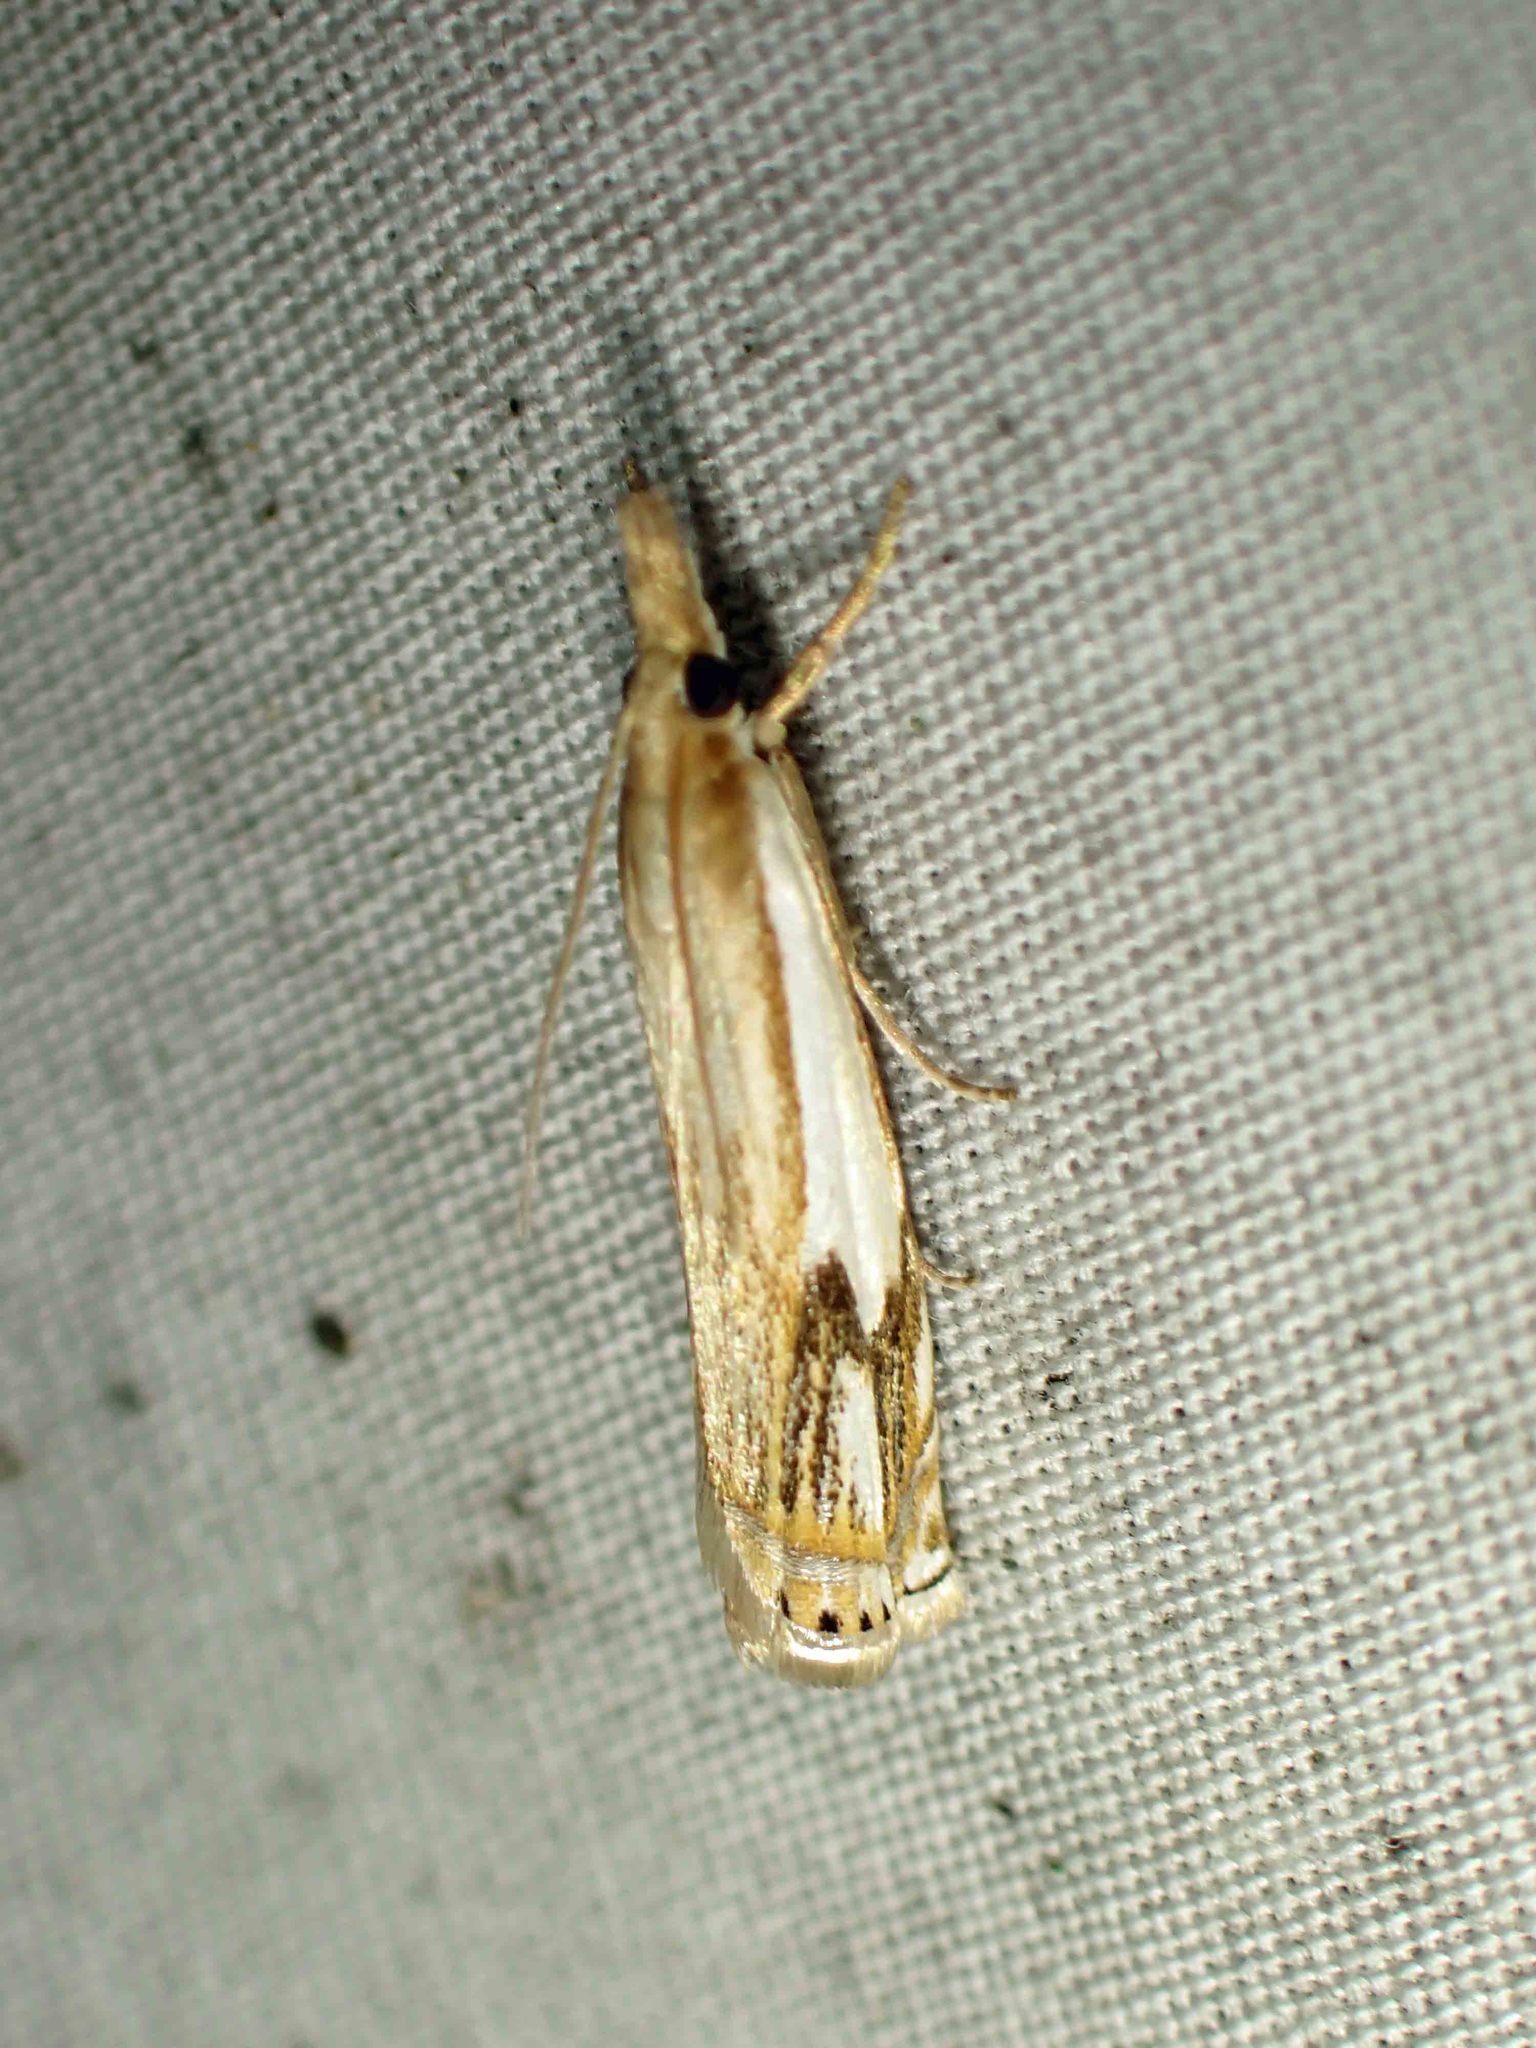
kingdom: Animalia
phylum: Arthropoda
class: Insecta
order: Lepidoptera
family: Crambidae
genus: Crambus
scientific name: Crambus agitatellus
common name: Double-banded grass-veneer
